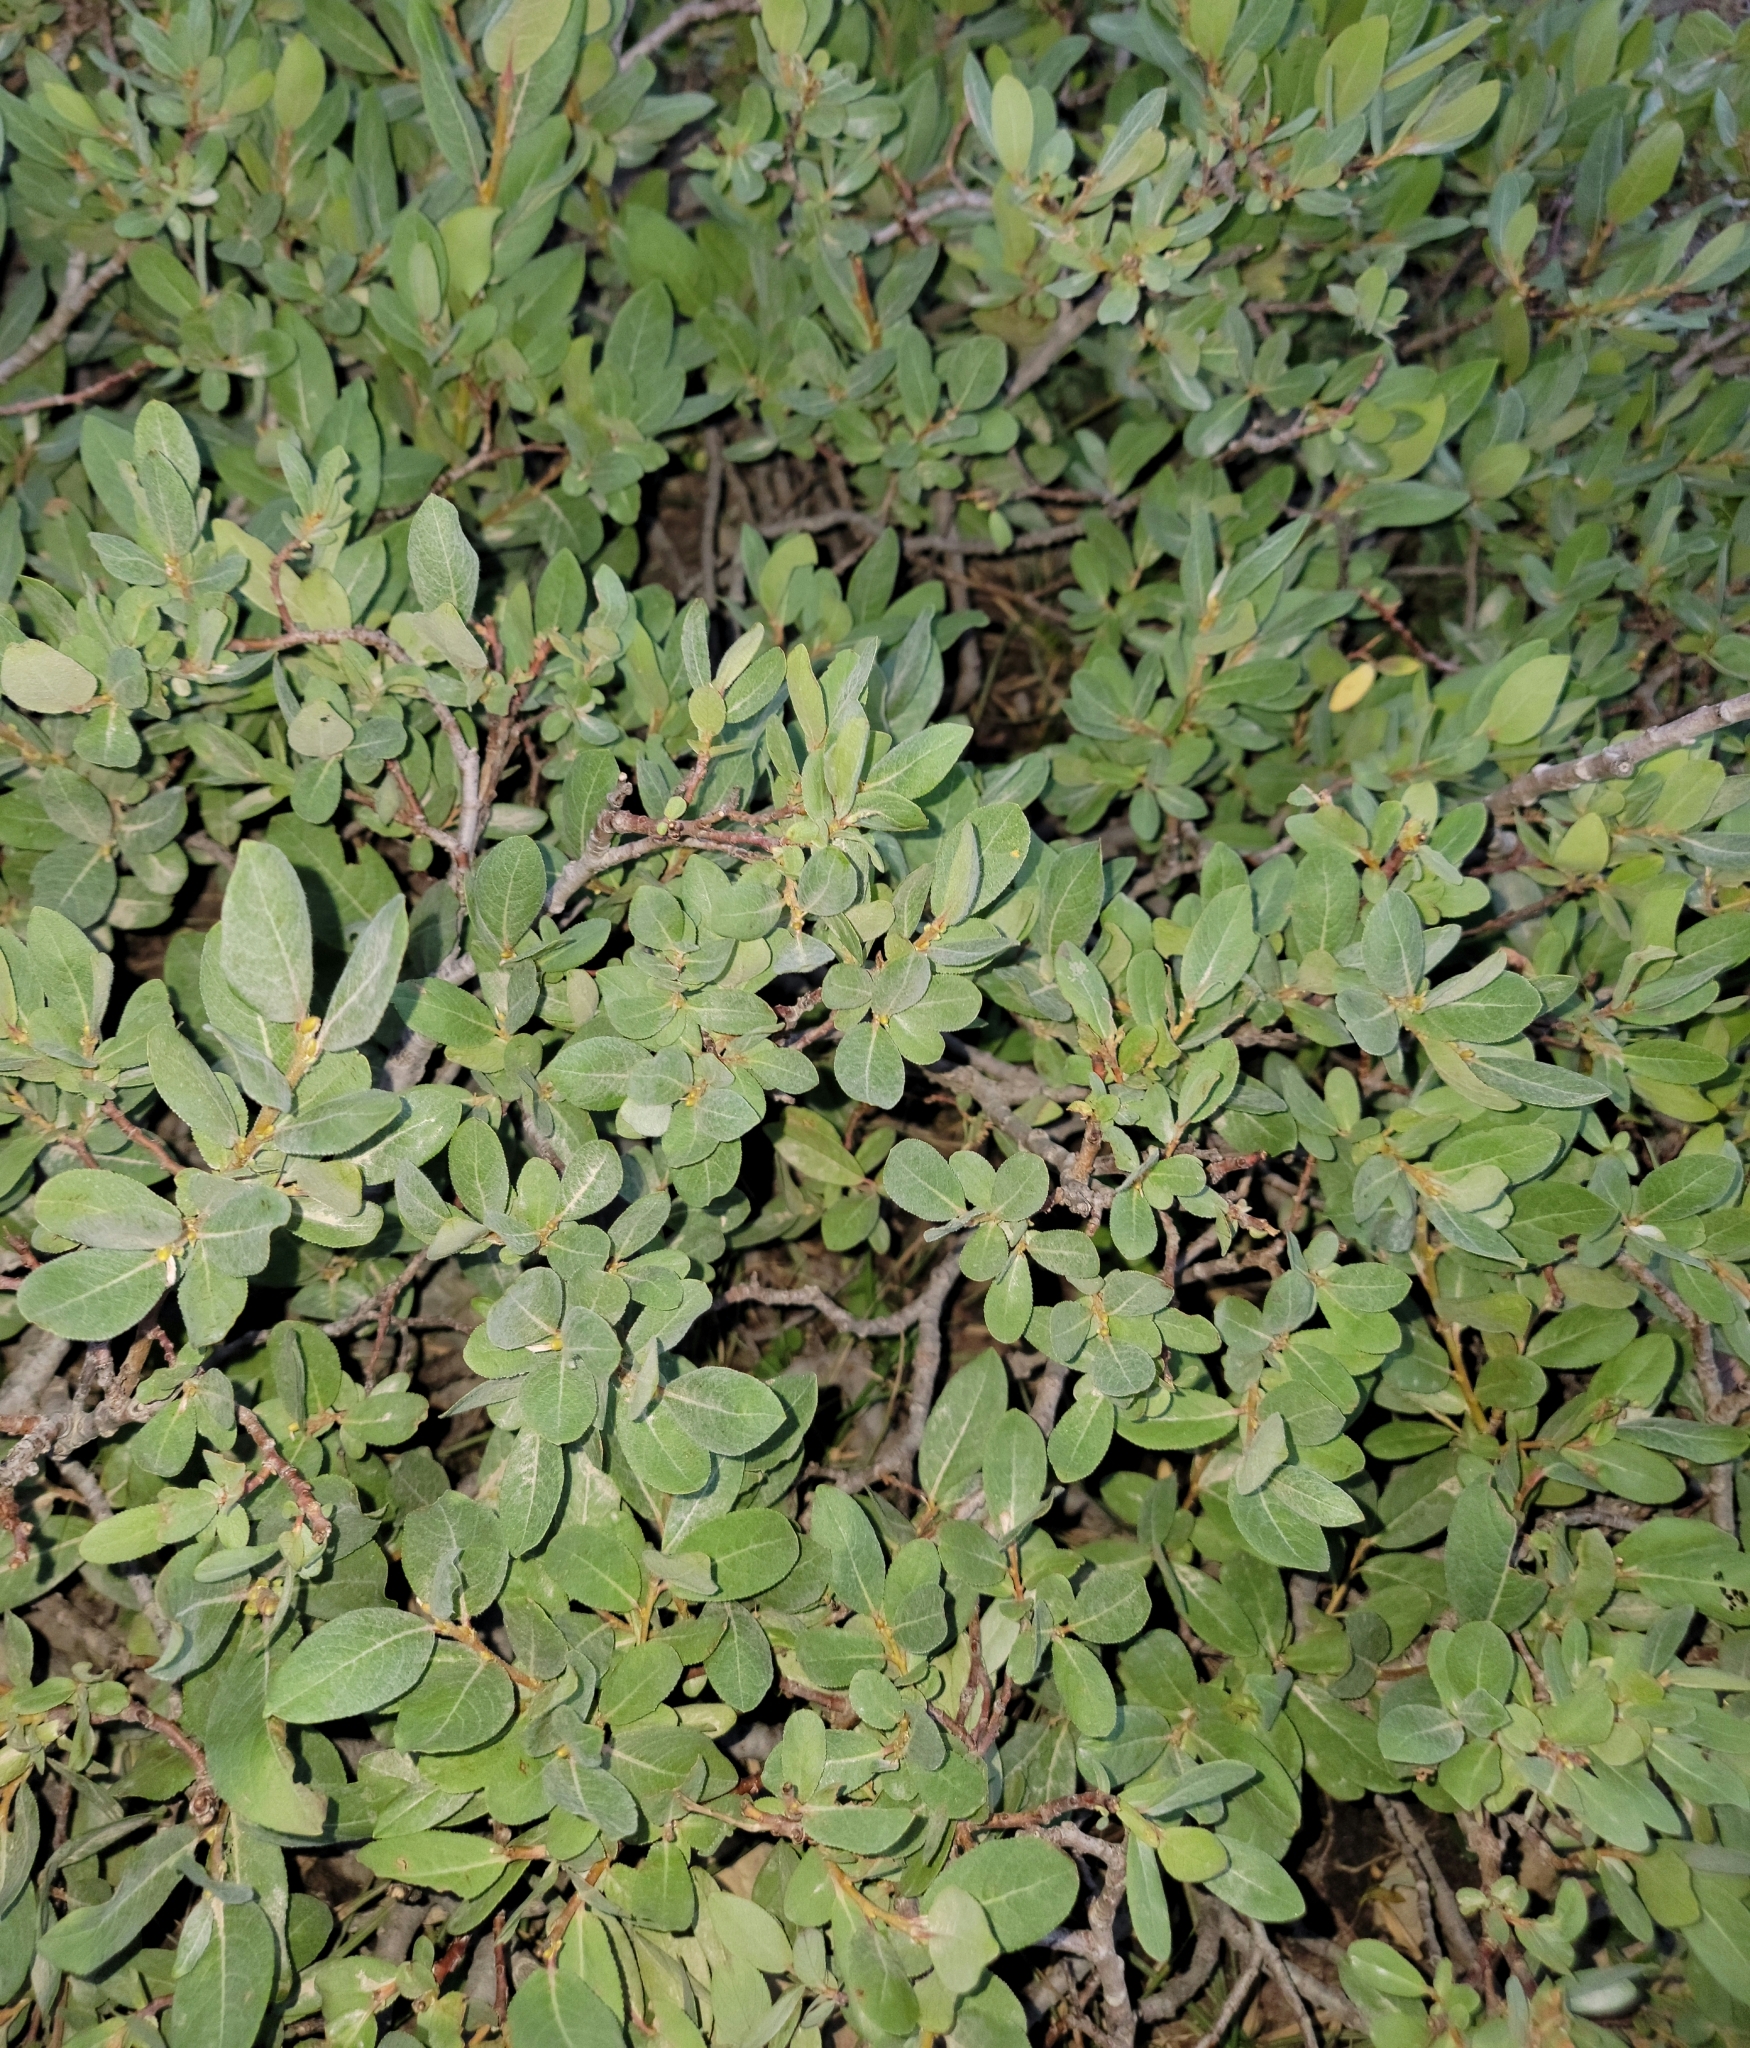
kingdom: Plantae
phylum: Tracheophyta
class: Magnoliopsida
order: Ericales
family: Ericaceae
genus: Rhododendron
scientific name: Rhododendron columbianum
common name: Western labrador tea
